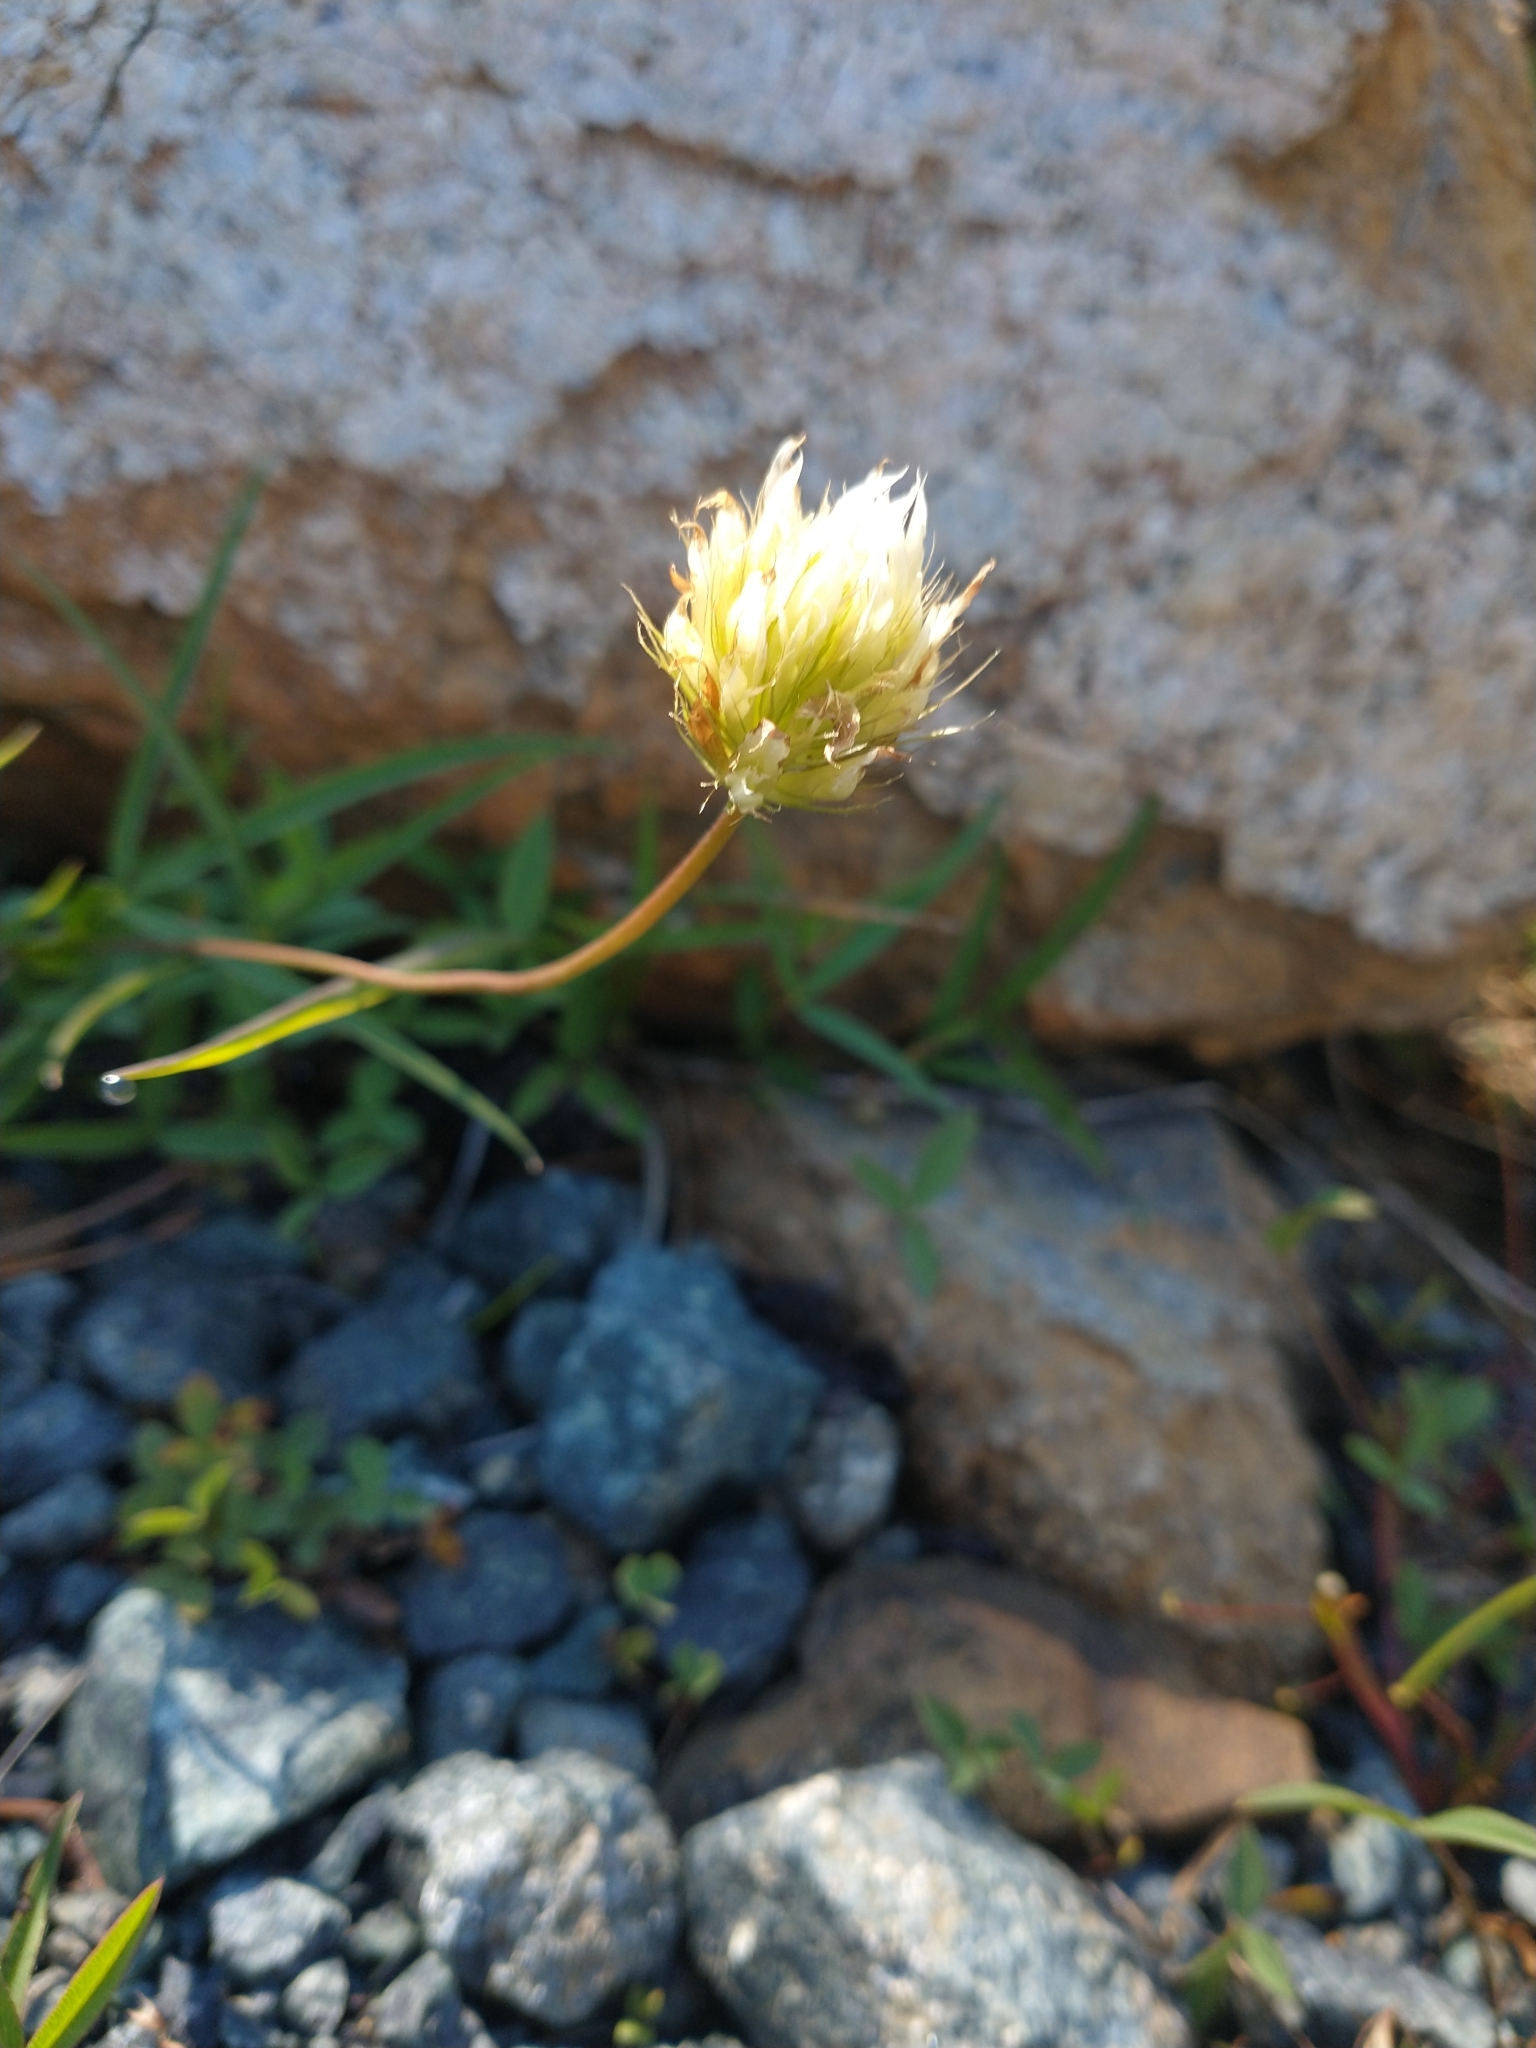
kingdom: Plantae
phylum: Tracheophyta
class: Magnoliopsida
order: Fabales
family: Fabaceae
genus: Trifolium
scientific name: Trifolium longipes
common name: Long-stalk clover
